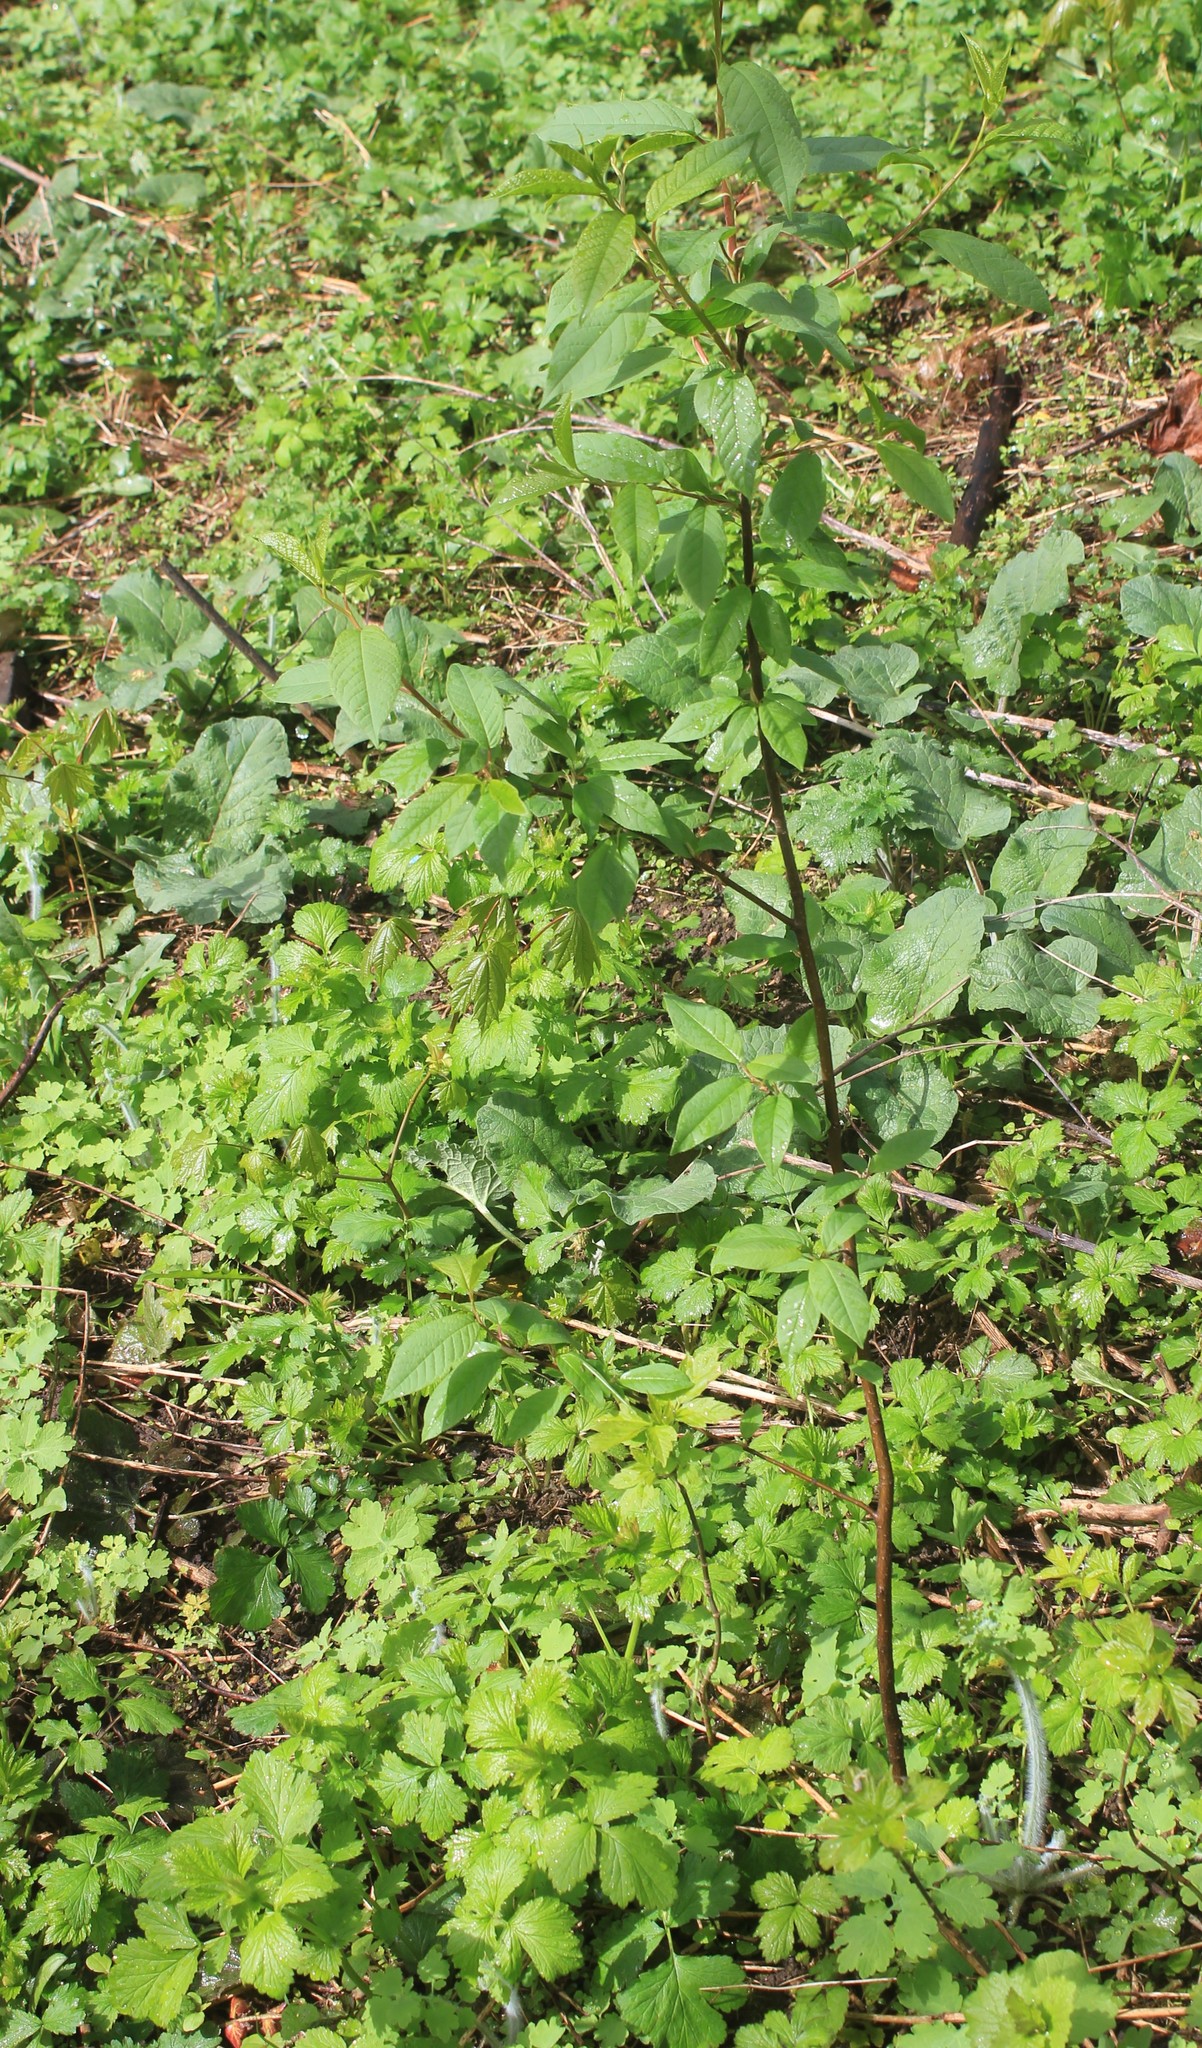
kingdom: Plantae
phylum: Tracheophyta
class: Magnoliopsida
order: Rosales
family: Rosaceae
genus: Prunus
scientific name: Prunus padus
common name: Bird cherry
